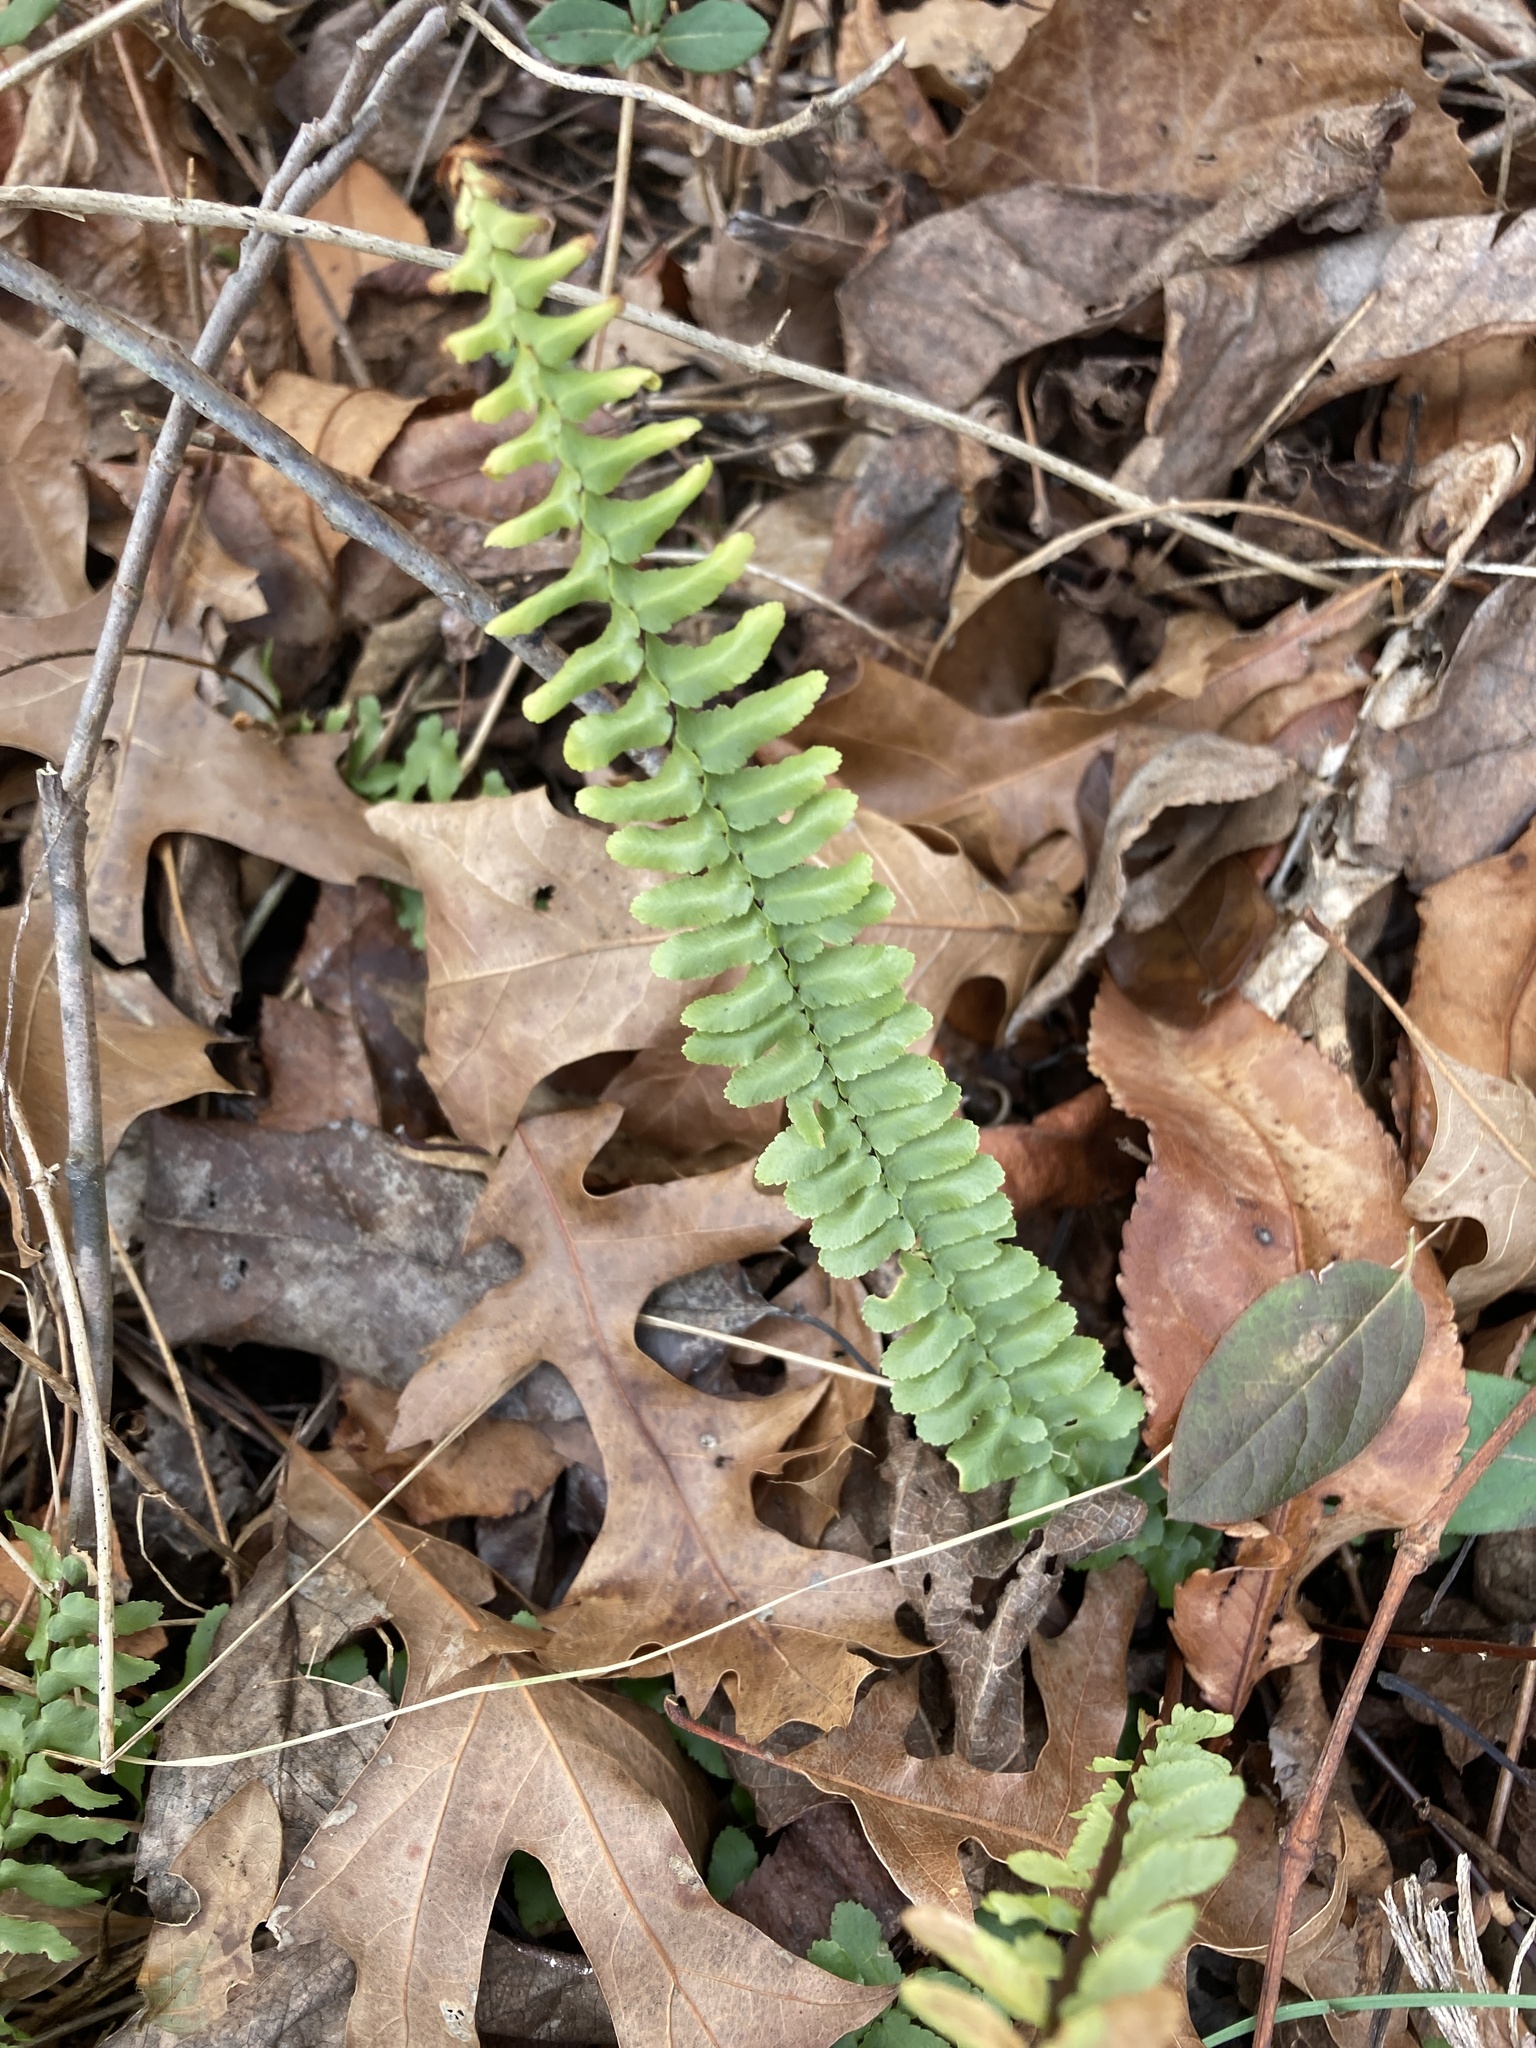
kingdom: Plantae
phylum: Tracheophyta
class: Polypodiopsida
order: Polypodiales
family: Aspleniaceae
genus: Asplenium
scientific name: Asplenium platyneuron
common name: Ebony spleenwort
